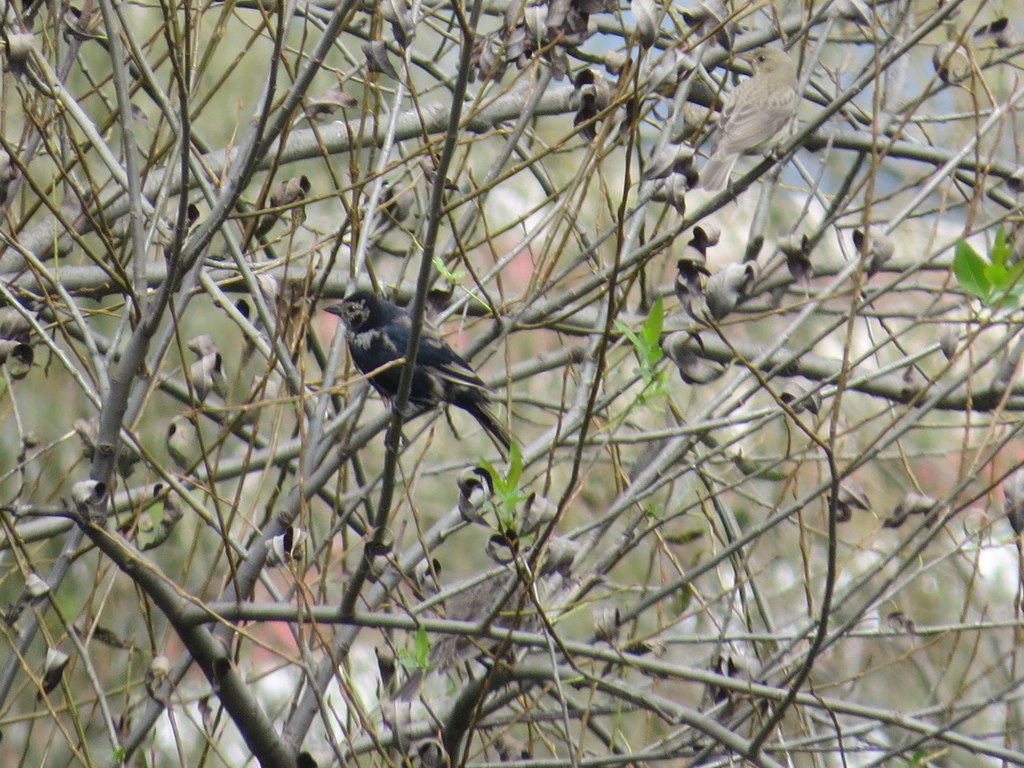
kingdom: Animalia
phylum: Chordata
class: Aves
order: Passeriformes
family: Icteridae
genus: Molothrus
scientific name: Molothrus bonariensis
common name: Shiny cowbird
